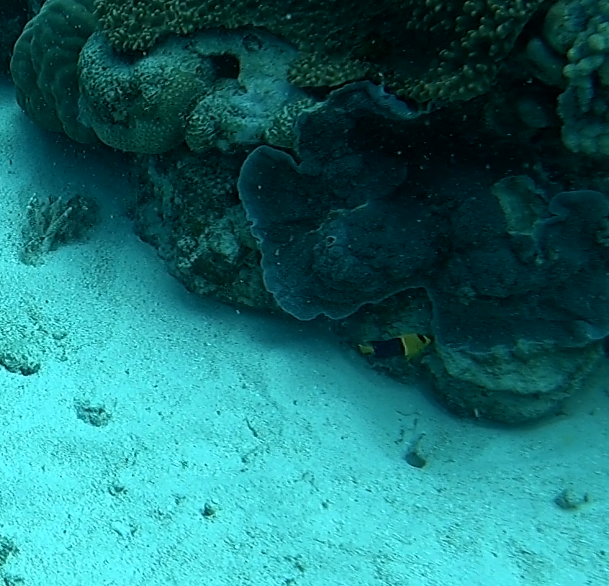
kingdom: Animalia
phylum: Chordata
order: Perciformes
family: Pomacanthidae
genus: Centropyge
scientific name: Centropyge bicolor
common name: Bicolor angelfish
